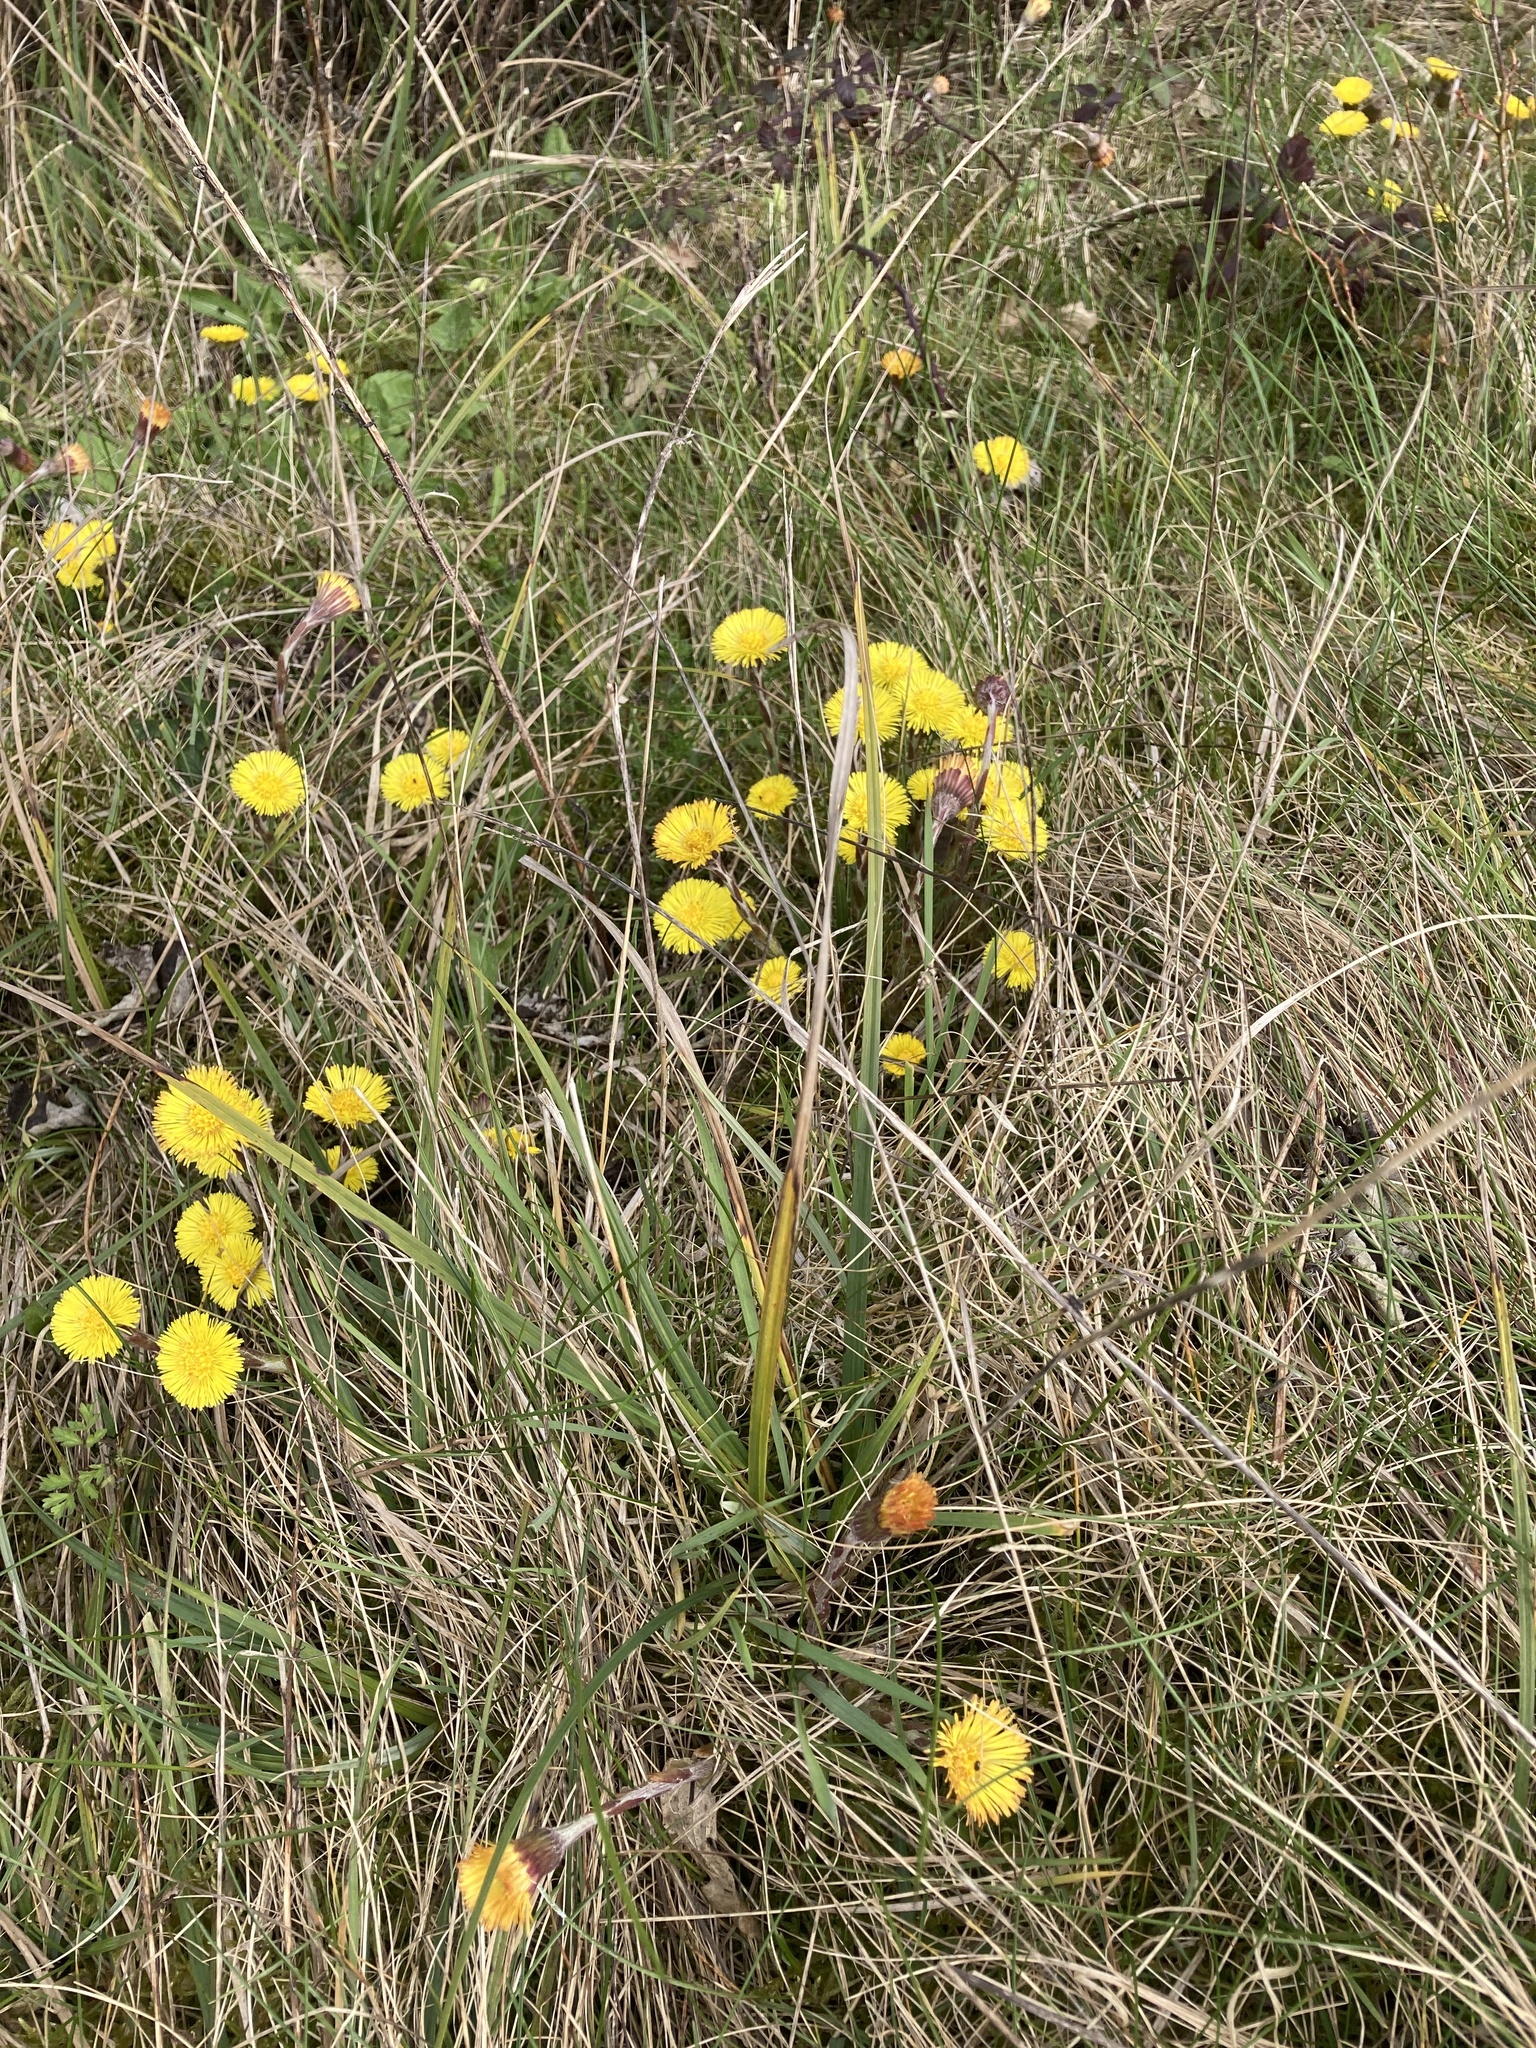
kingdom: Plantae
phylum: Tracheophyta
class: Magnoliopsida
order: Asterales
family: Asteraceae
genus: Tussilago
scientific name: Tussilago farfara
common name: Coltsfoot
